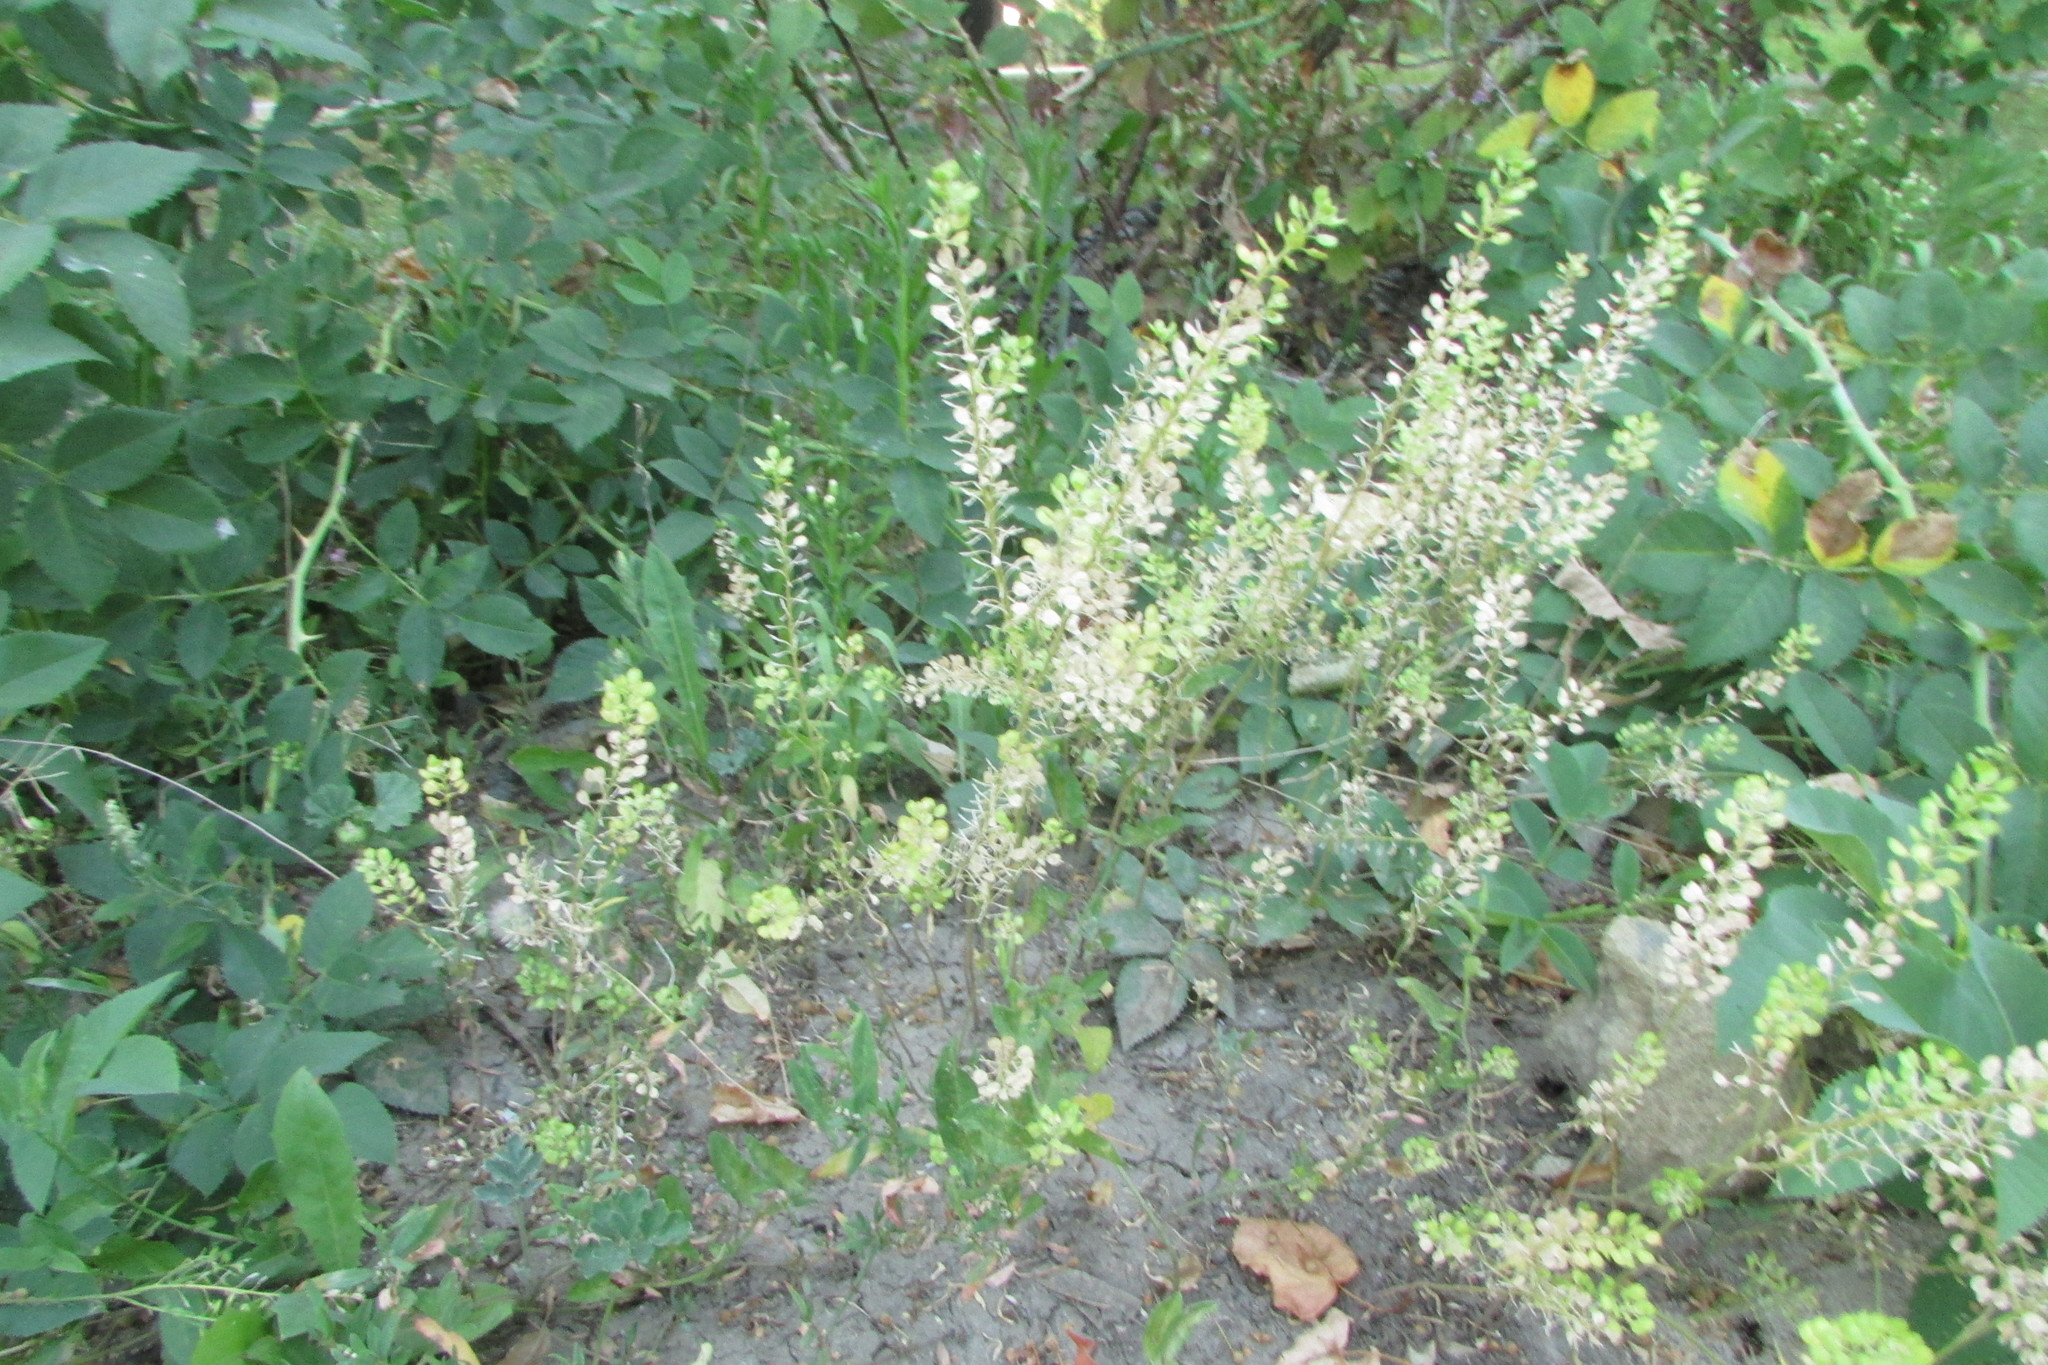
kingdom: Plantae
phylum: Tracheophyta
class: Magnoliopsida
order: Brassicales
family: Brassicaceae
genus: Lepidium
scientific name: Lepidium densiflorum
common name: Miner's pepperwort
